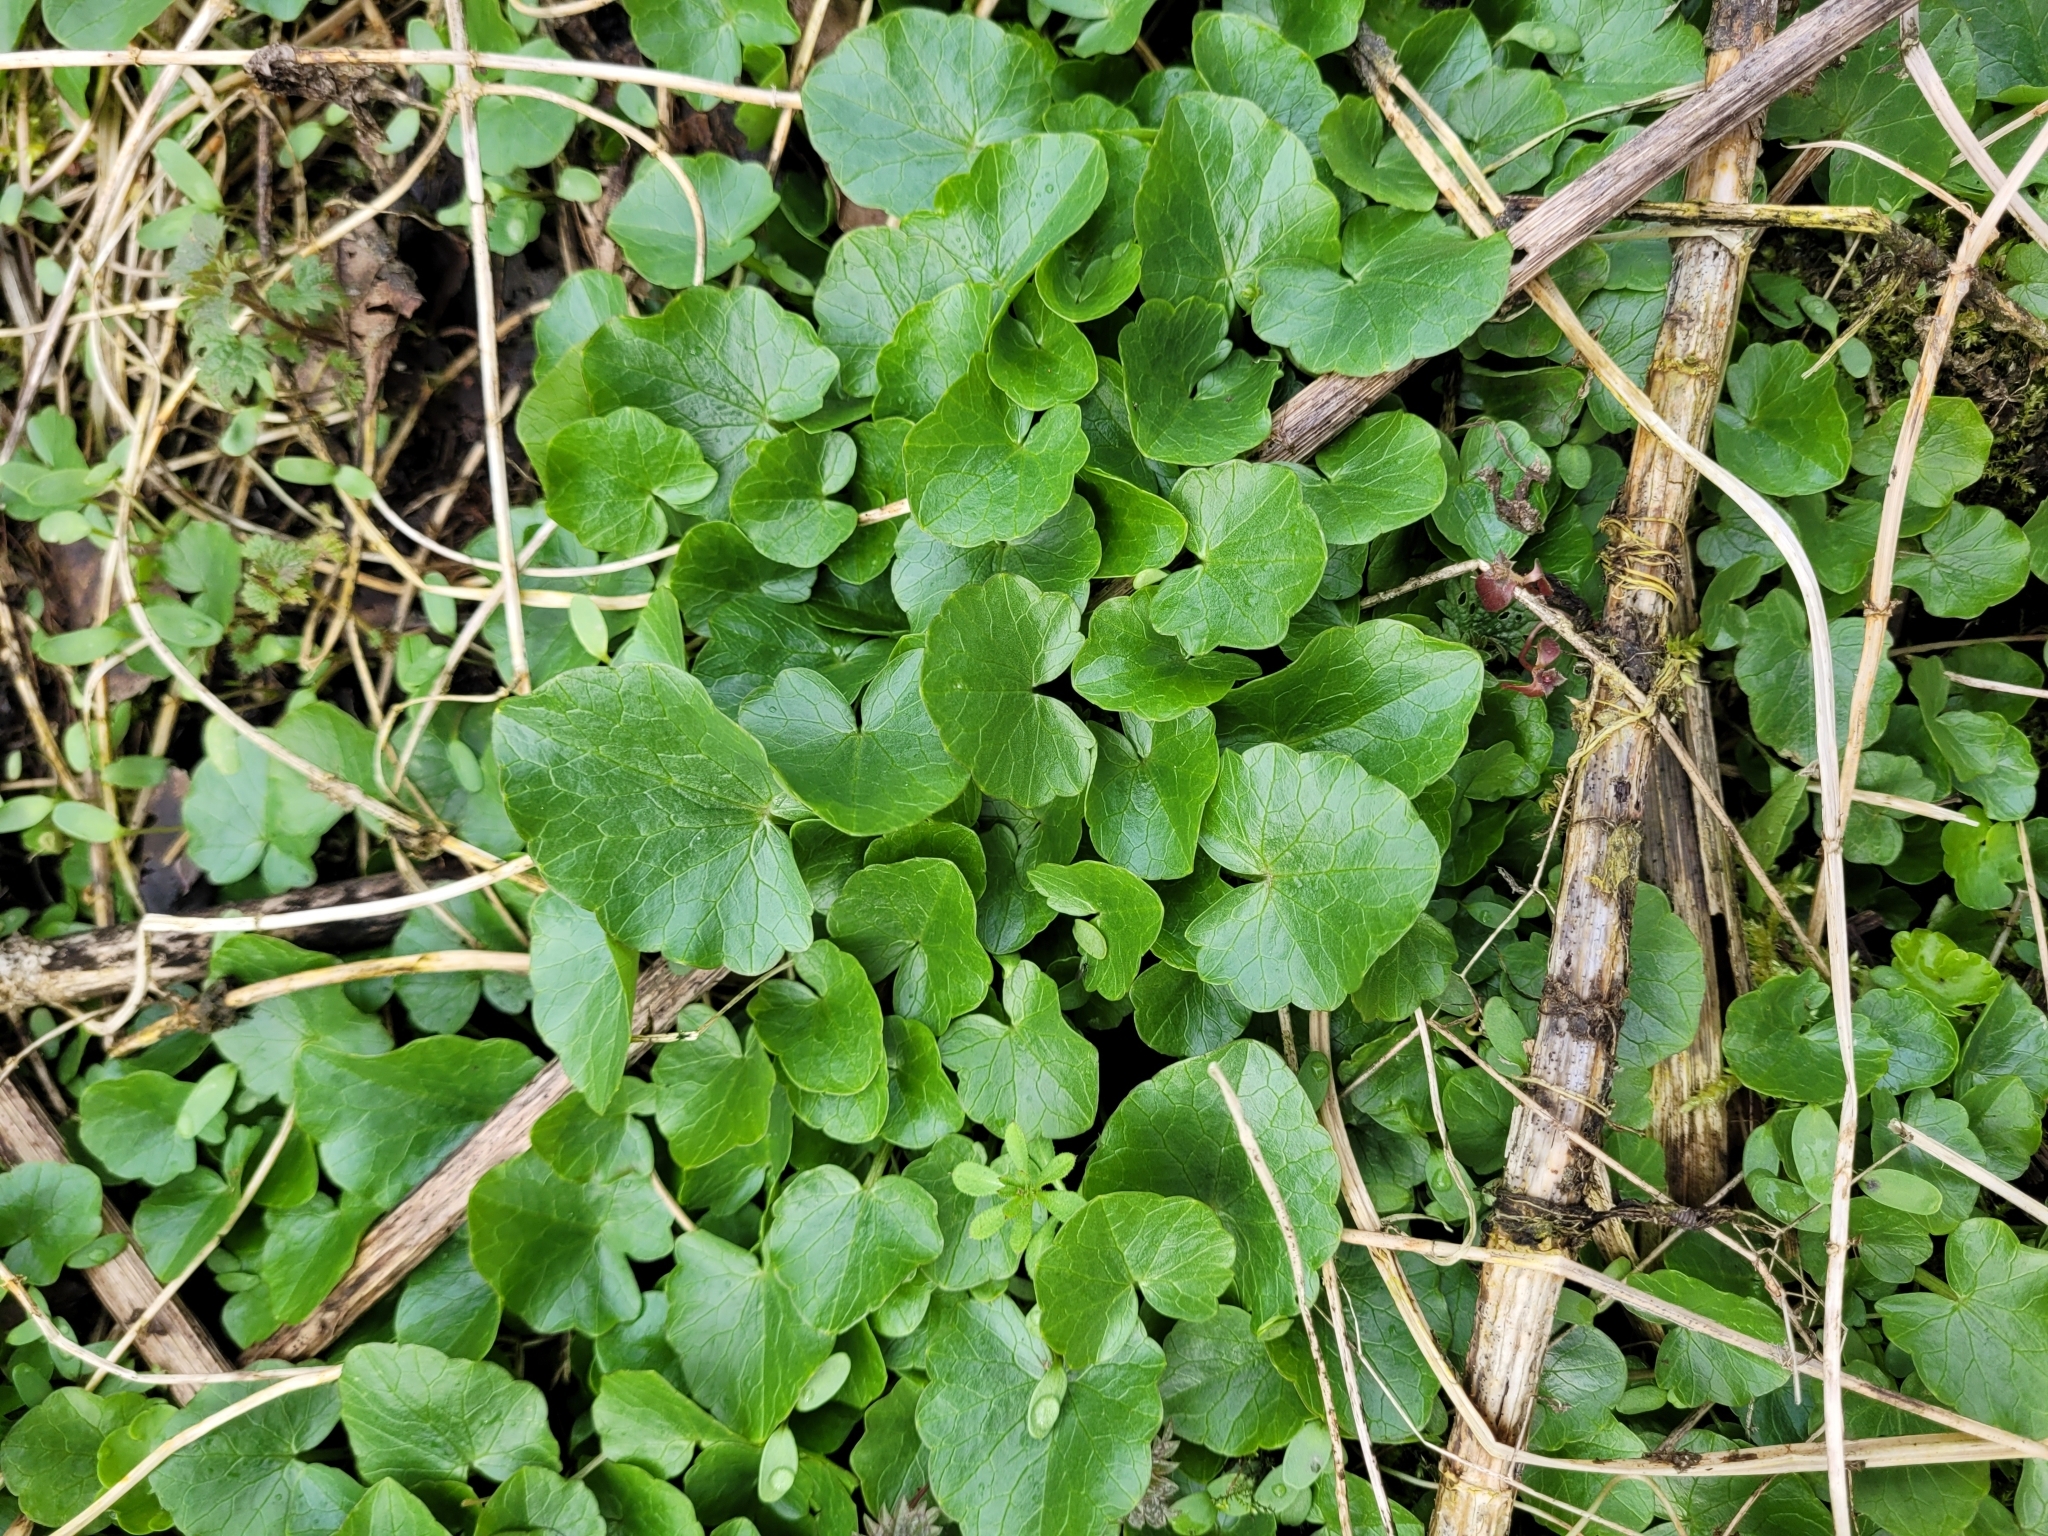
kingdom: Plantae
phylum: Tracheophyta
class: Magnoliopsida
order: Ranunculales
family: Ranunculaceae
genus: Ficaria
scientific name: Ficaria verna
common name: Lesser celandine
